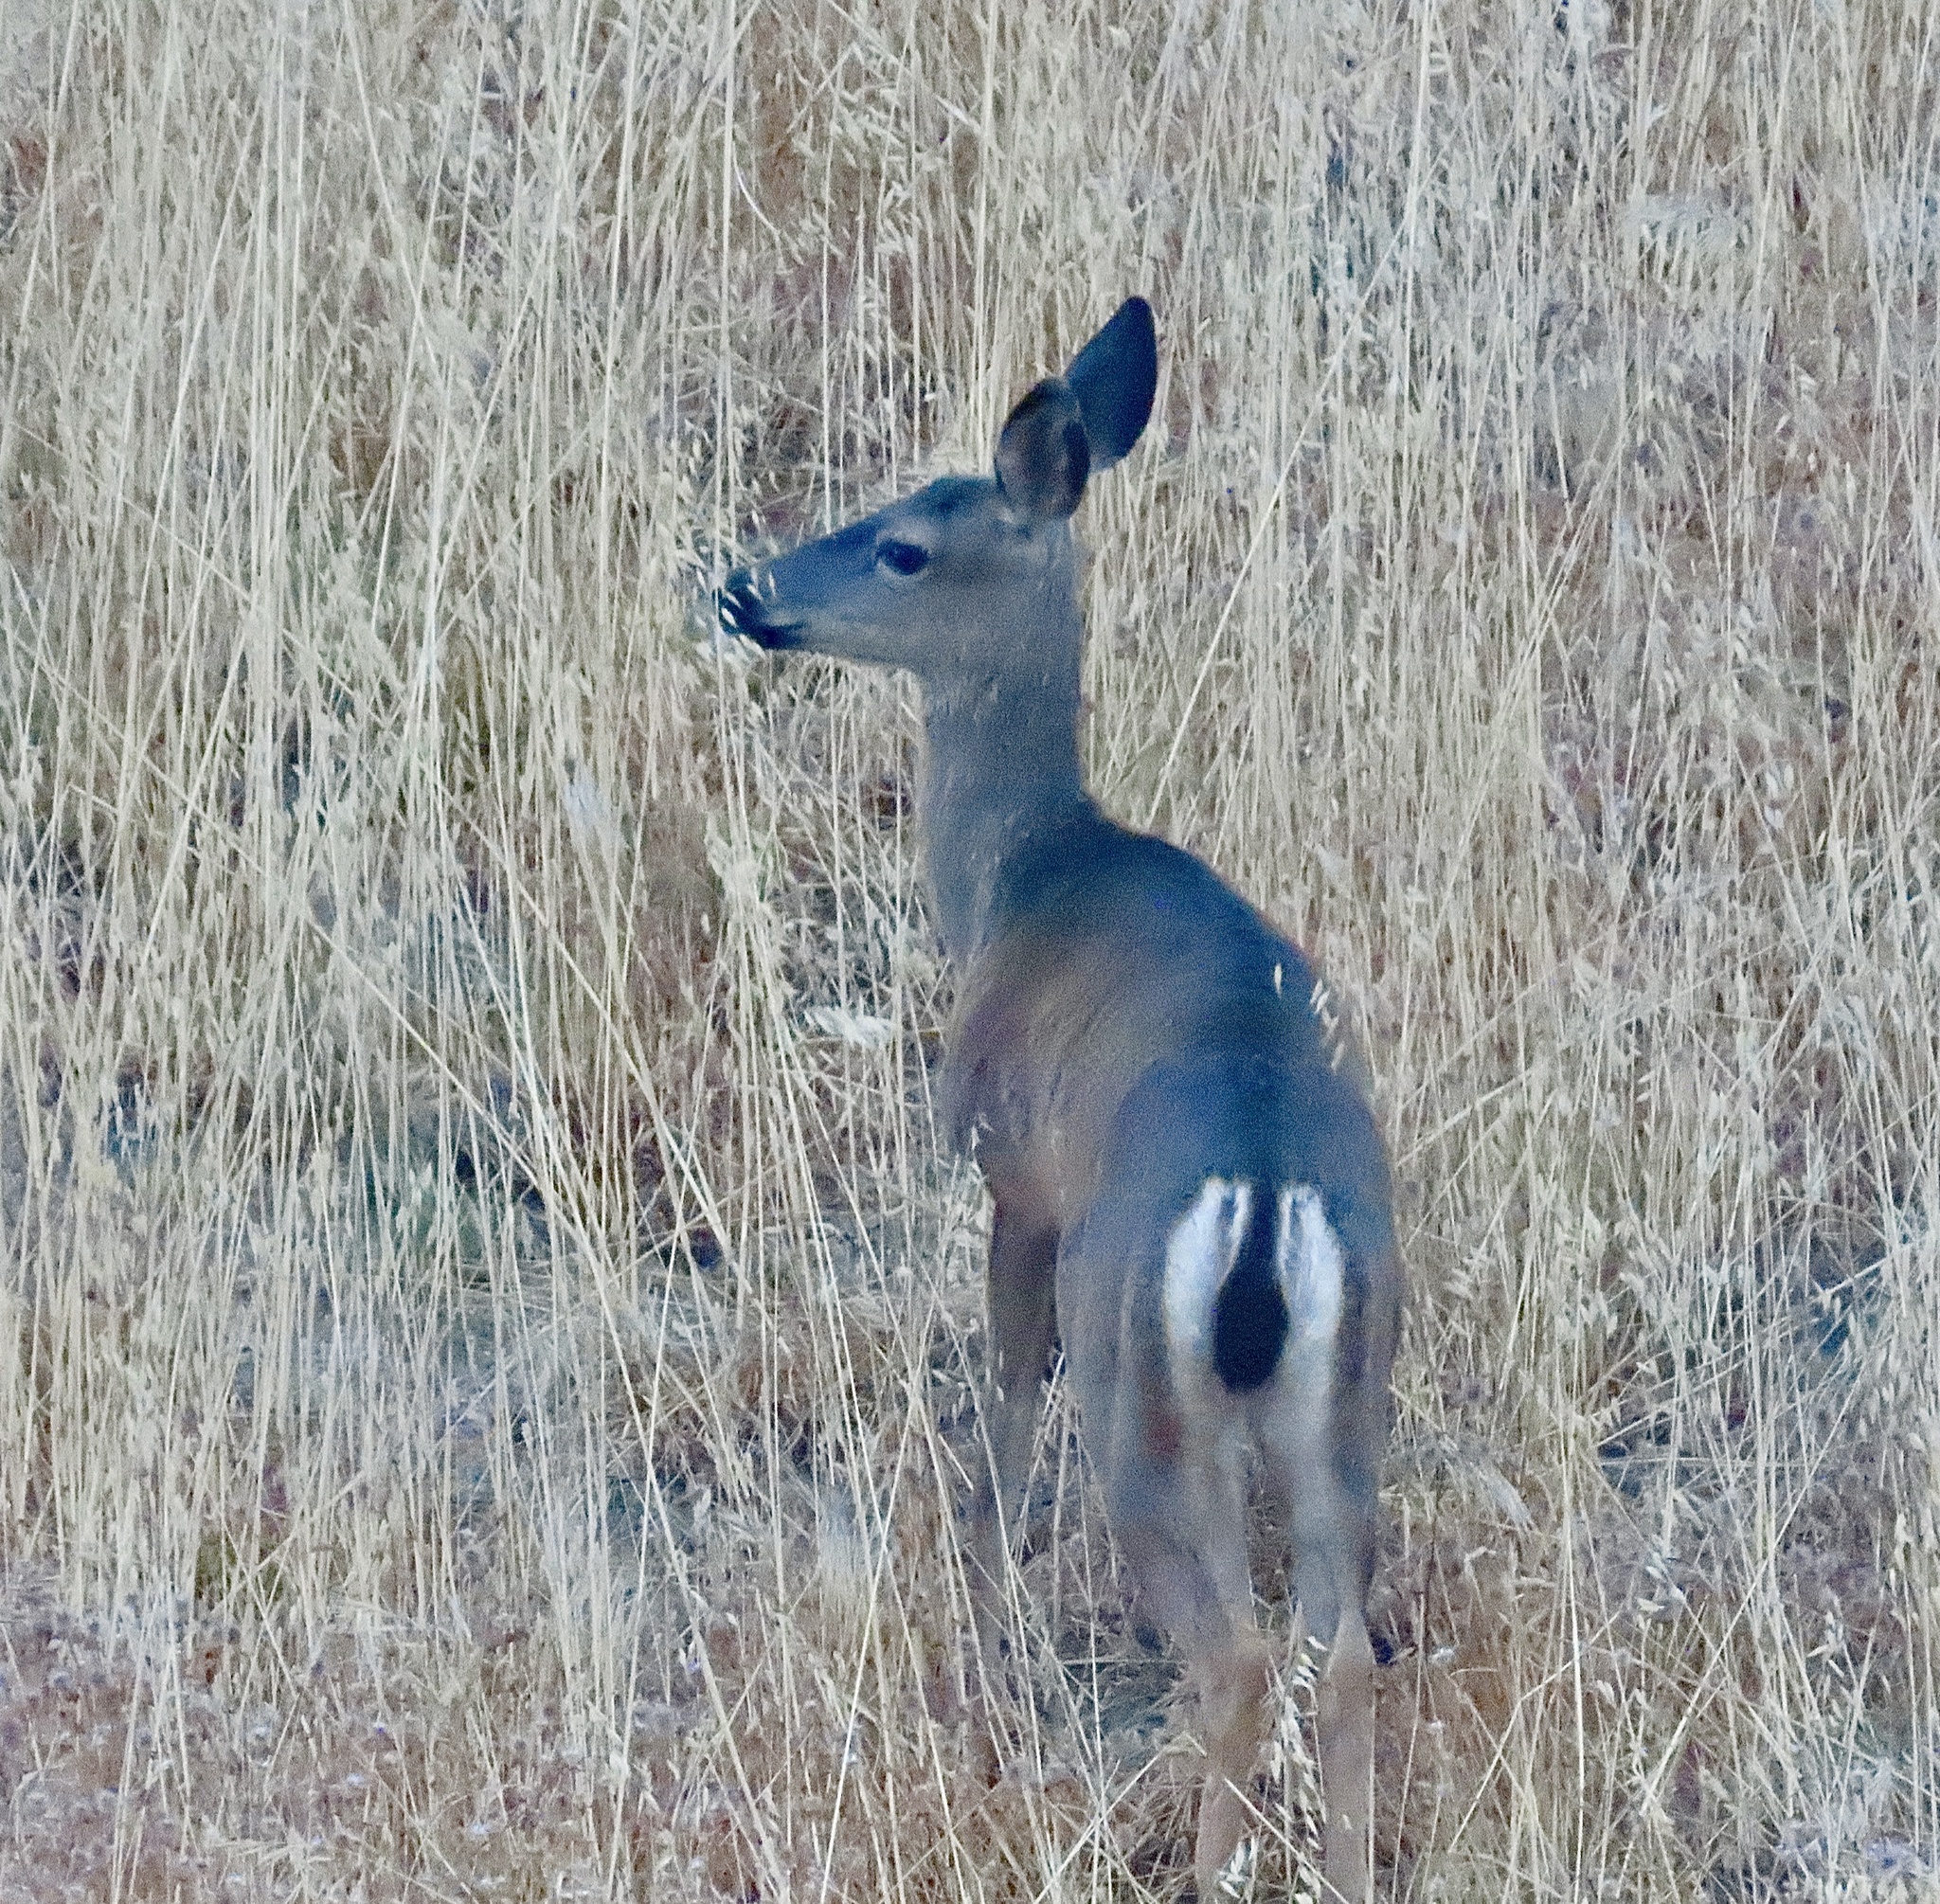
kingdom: Animalia
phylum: Chordata
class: Mammalia
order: Artiodactyla
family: Cervidae
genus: Odocoileus
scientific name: Odocoileus hemionus
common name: Mule deer
